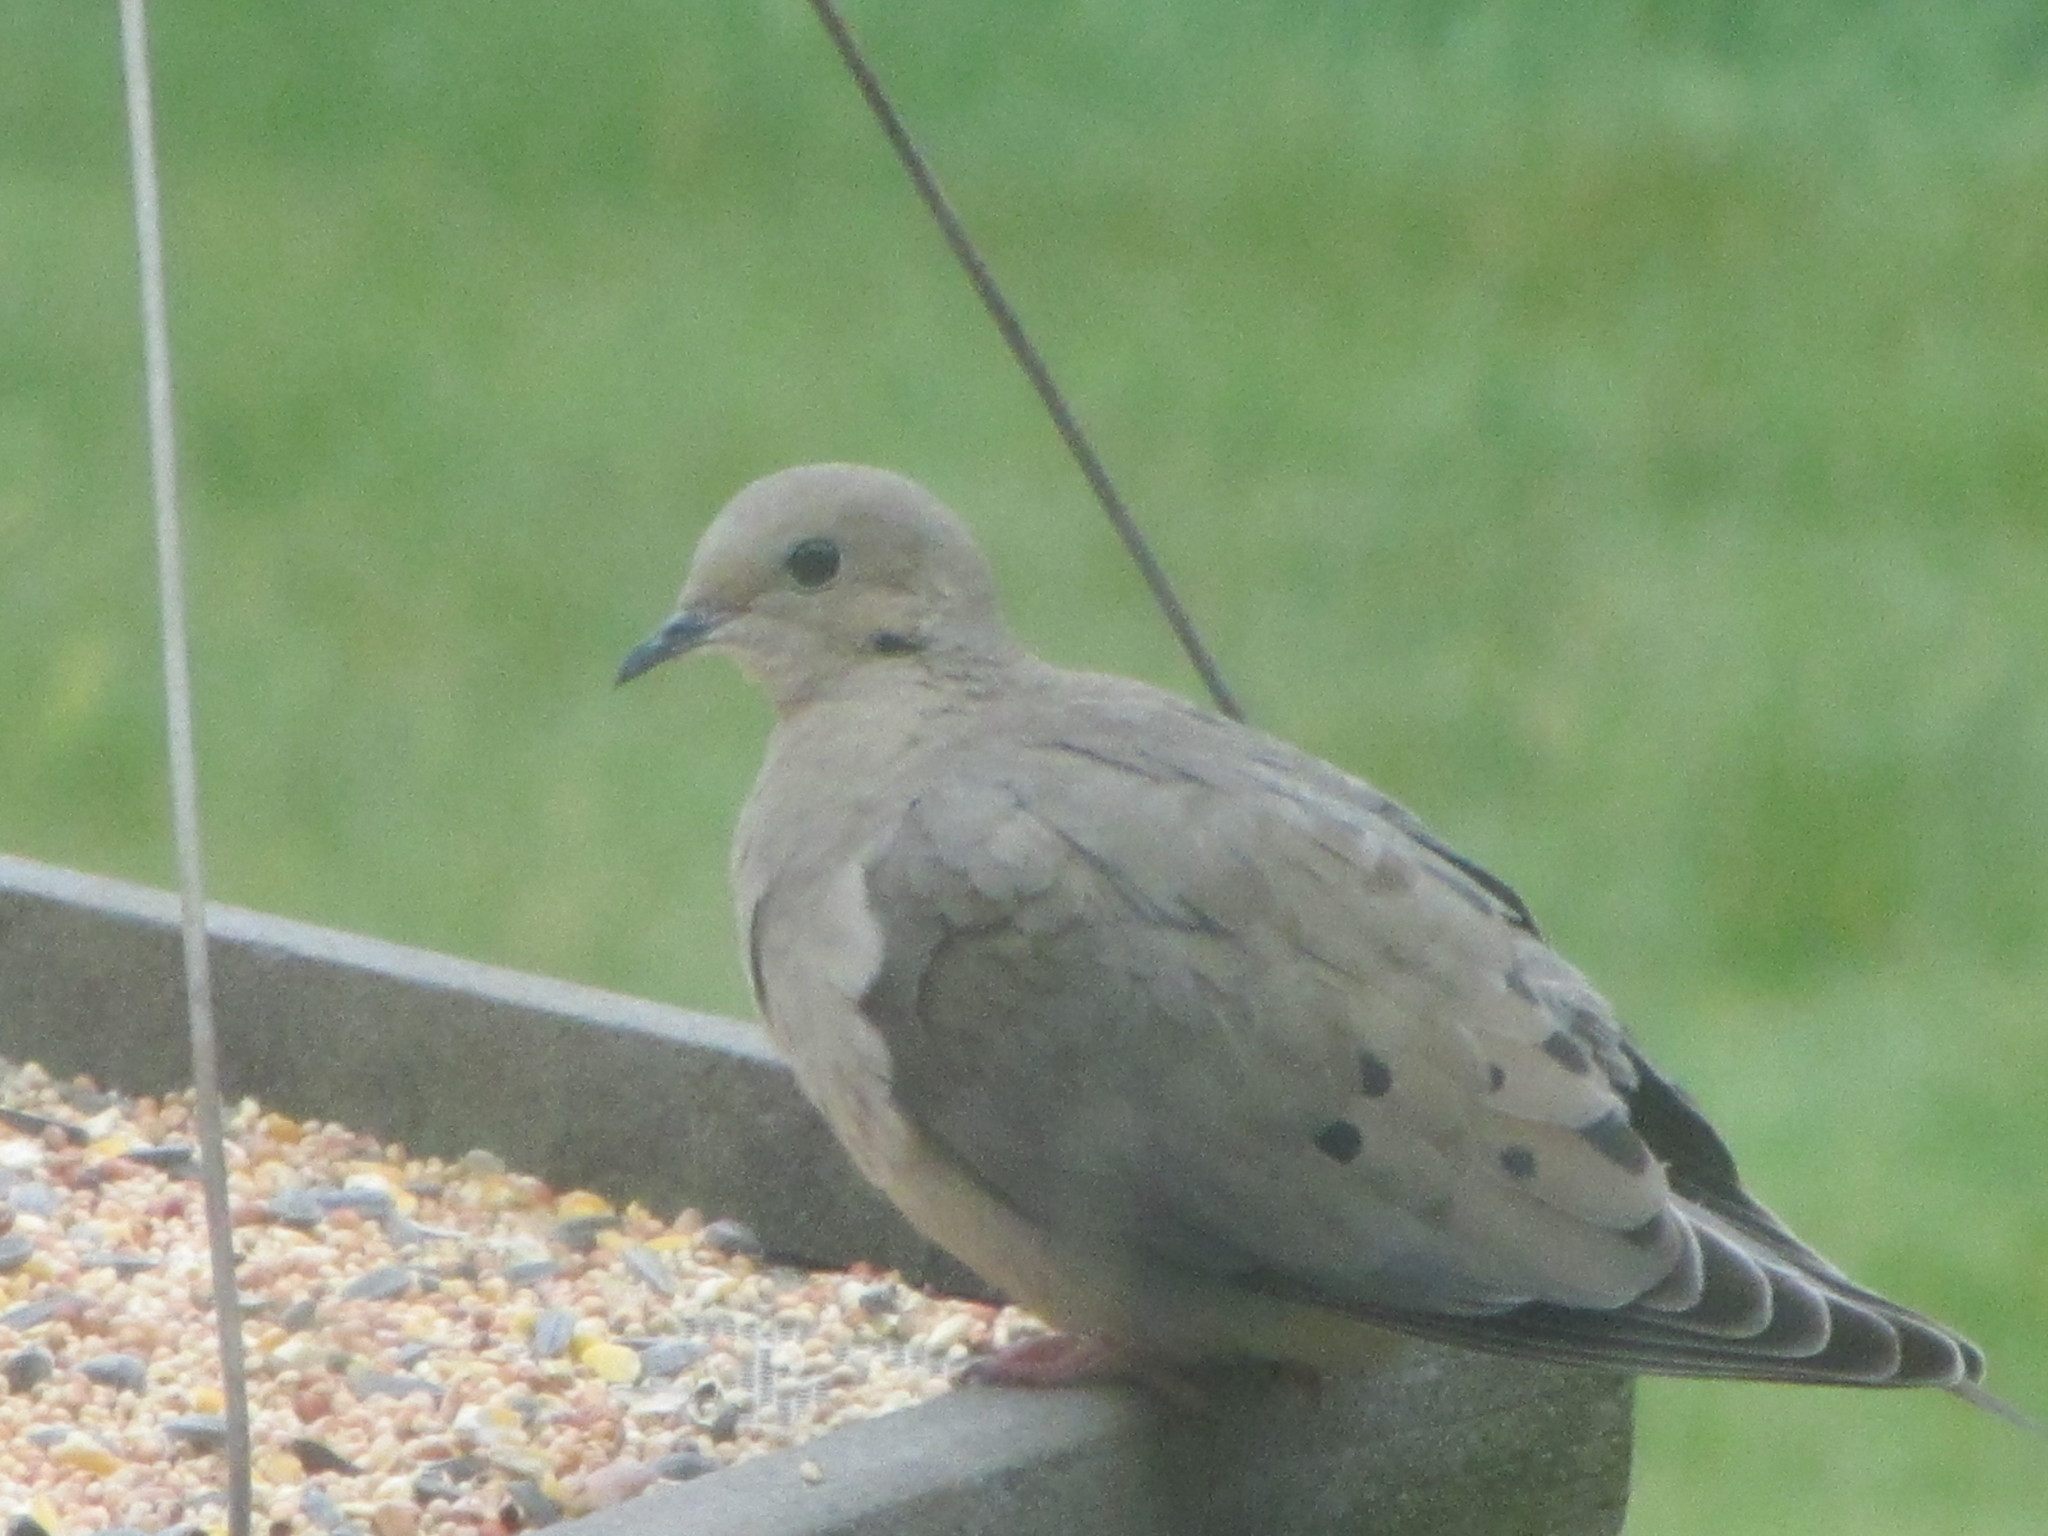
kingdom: Animalia
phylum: Chordata
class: Aves
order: Columbiformes
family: Columbidae
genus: Zenaida
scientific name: Zenaida macroura
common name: Mourning dove
